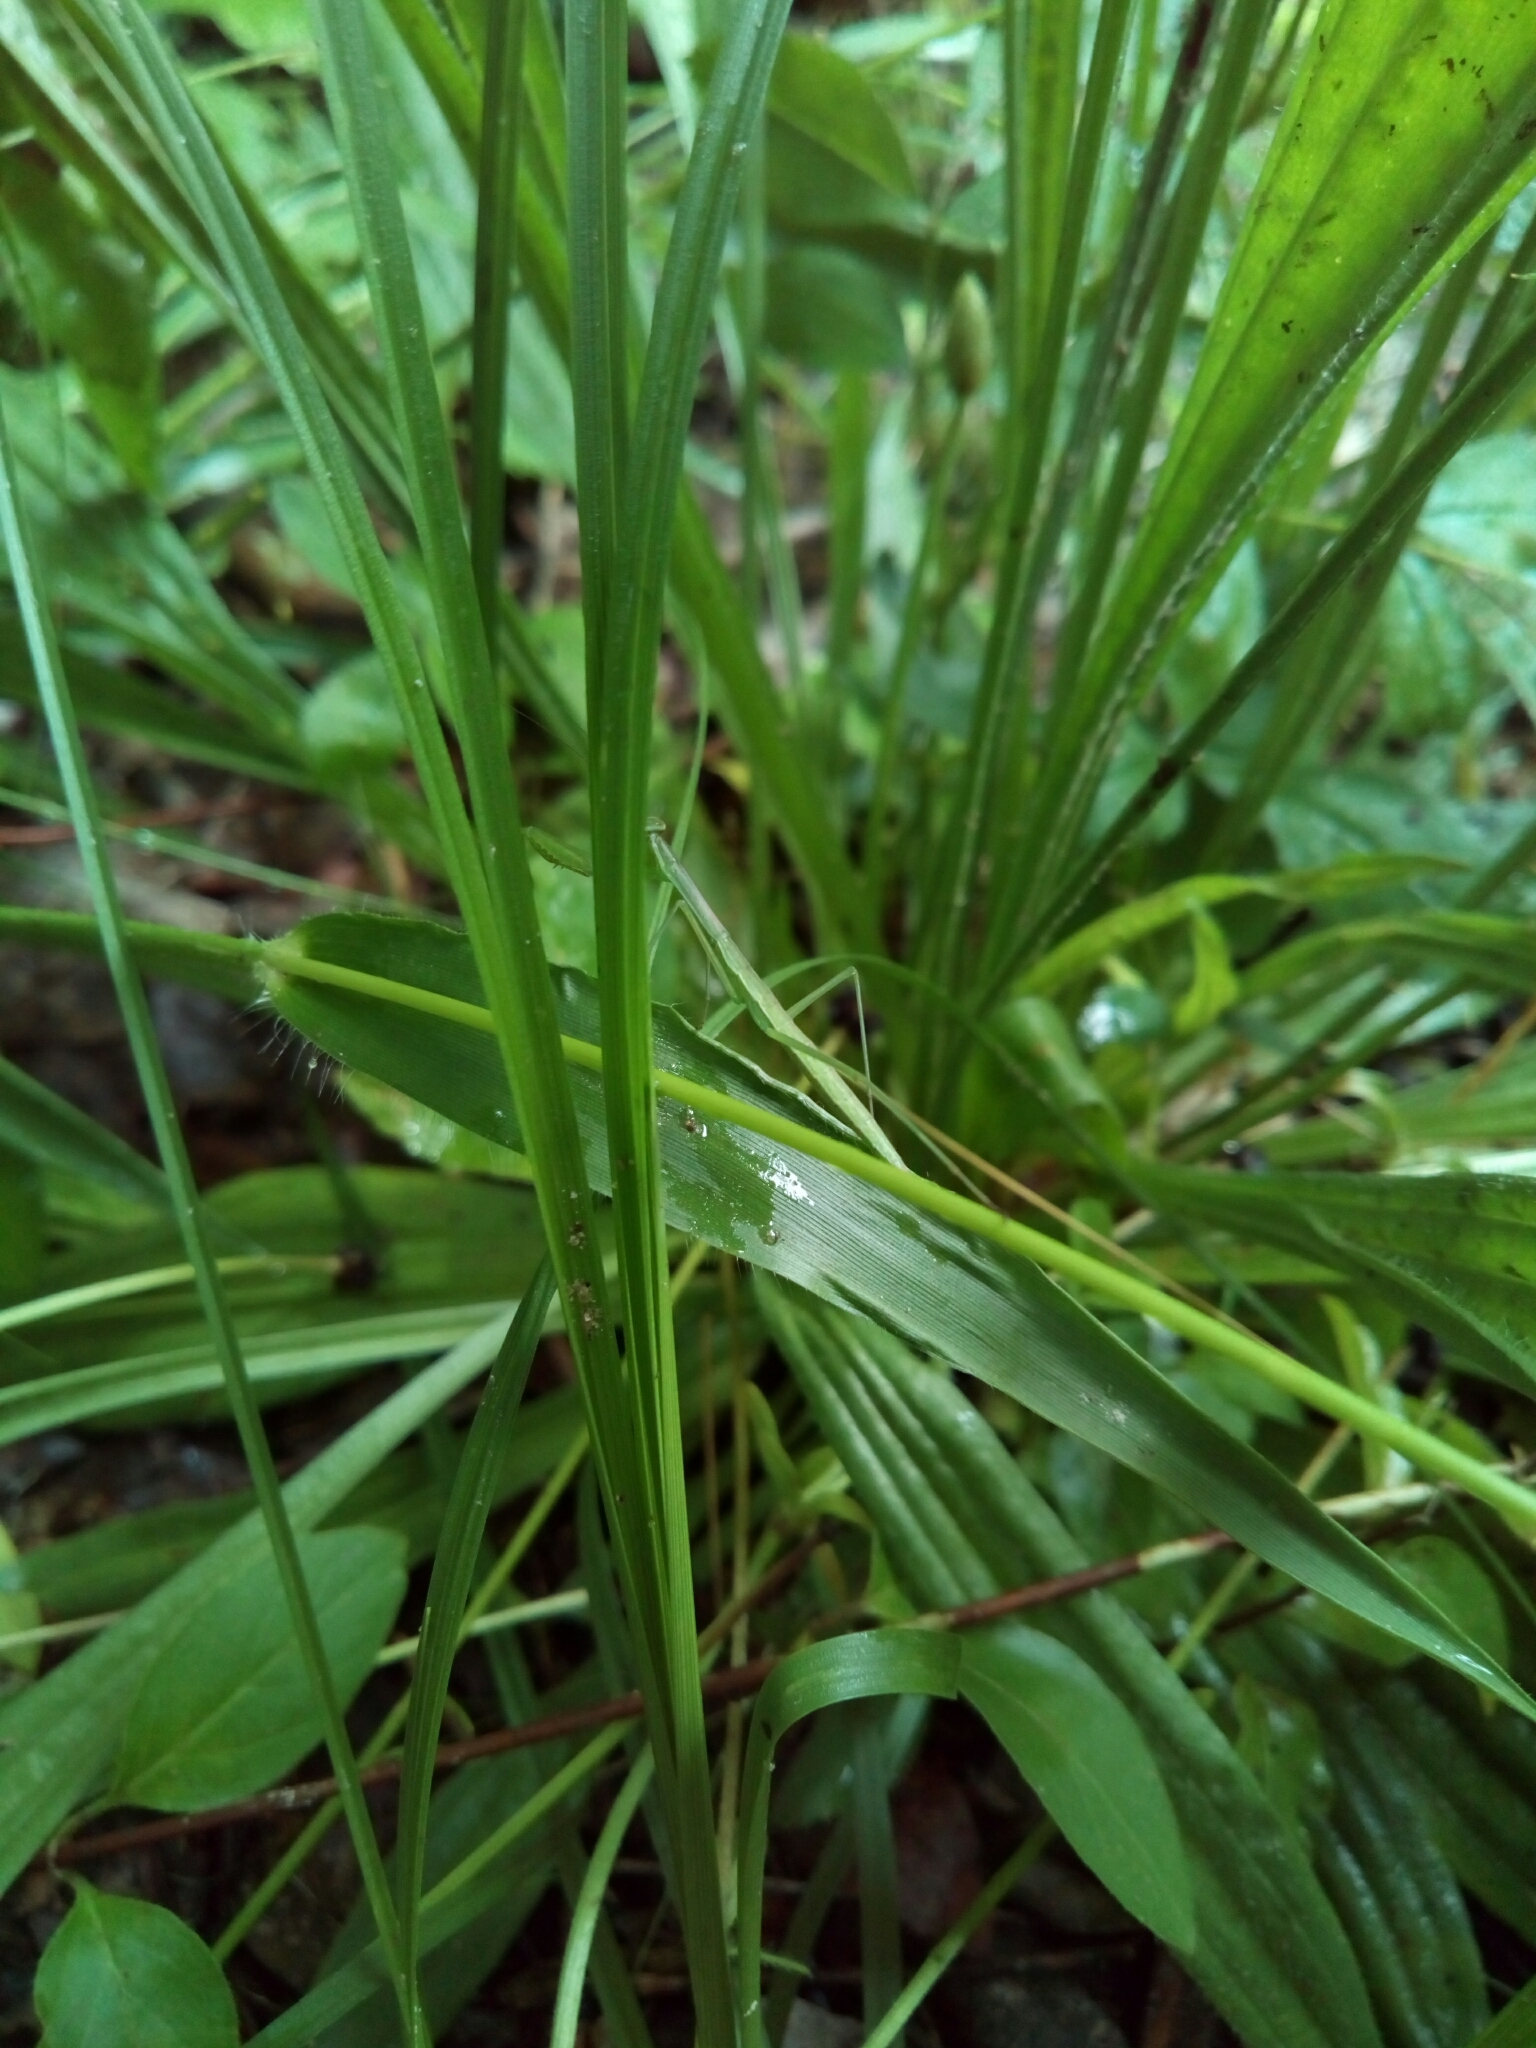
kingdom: Animalia
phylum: Arthropoda
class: Insecta
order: Mantodea
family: Mantidae
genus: Tenodera
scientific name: Tenodera sinensis
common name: Chinese mantis
